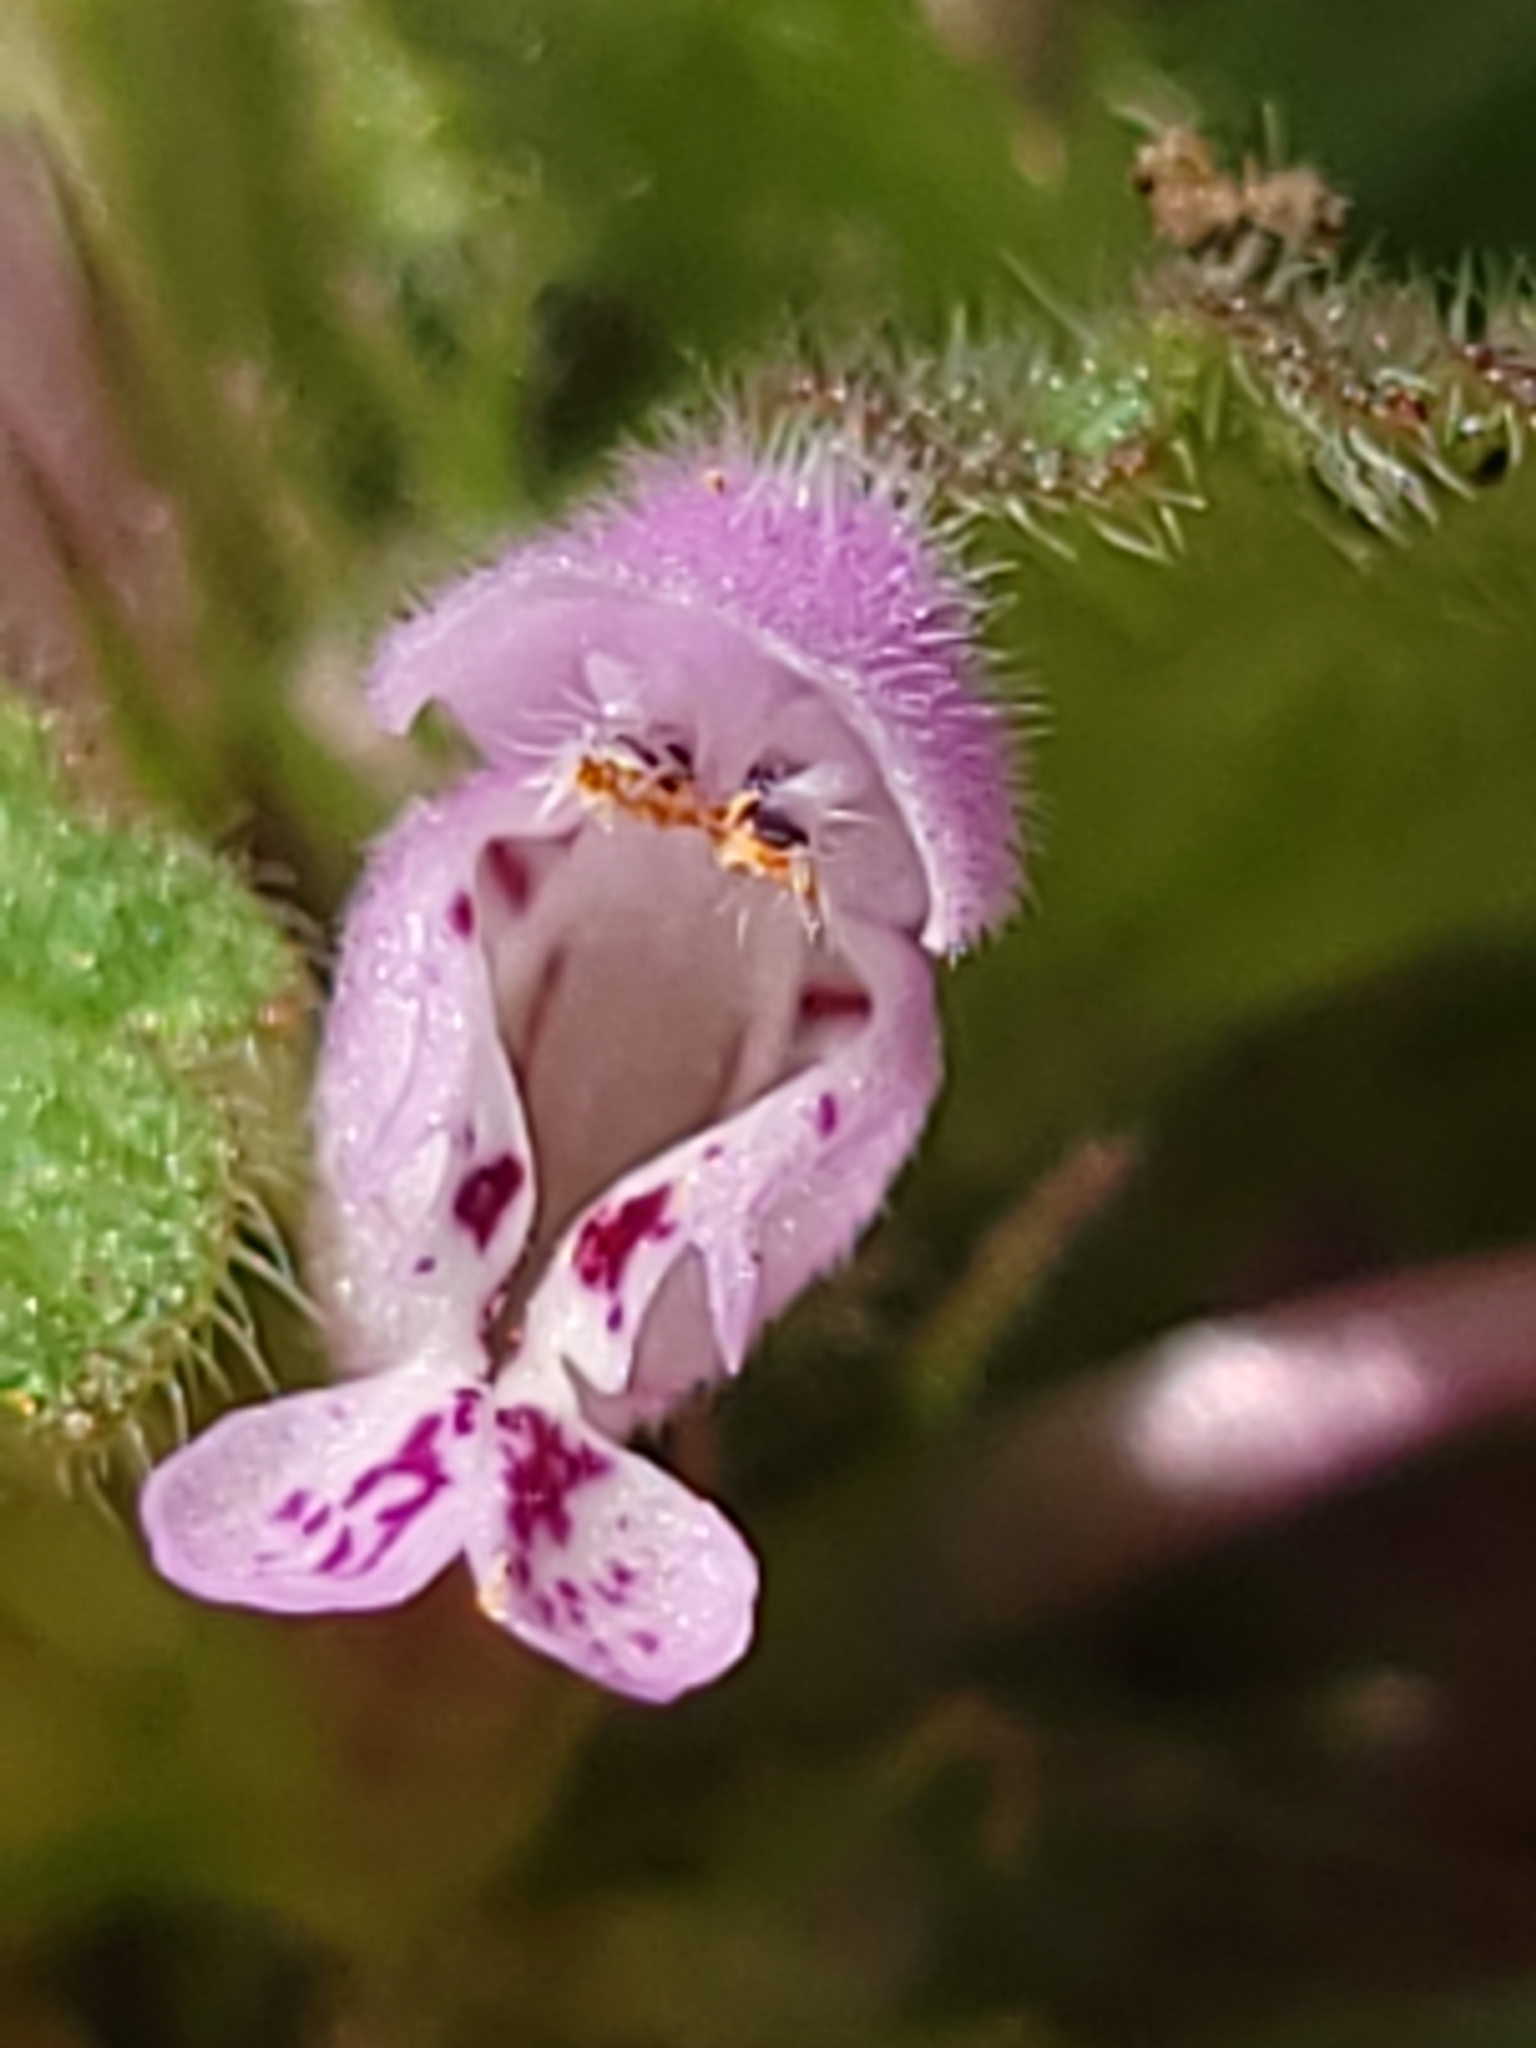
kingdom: Plantae
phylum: Tracheophyta
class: Magnoliopsida
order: Lamiales
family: Lamiaceae
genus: Lamium
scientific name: Lamium purpureum
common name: Red dead-nettle
